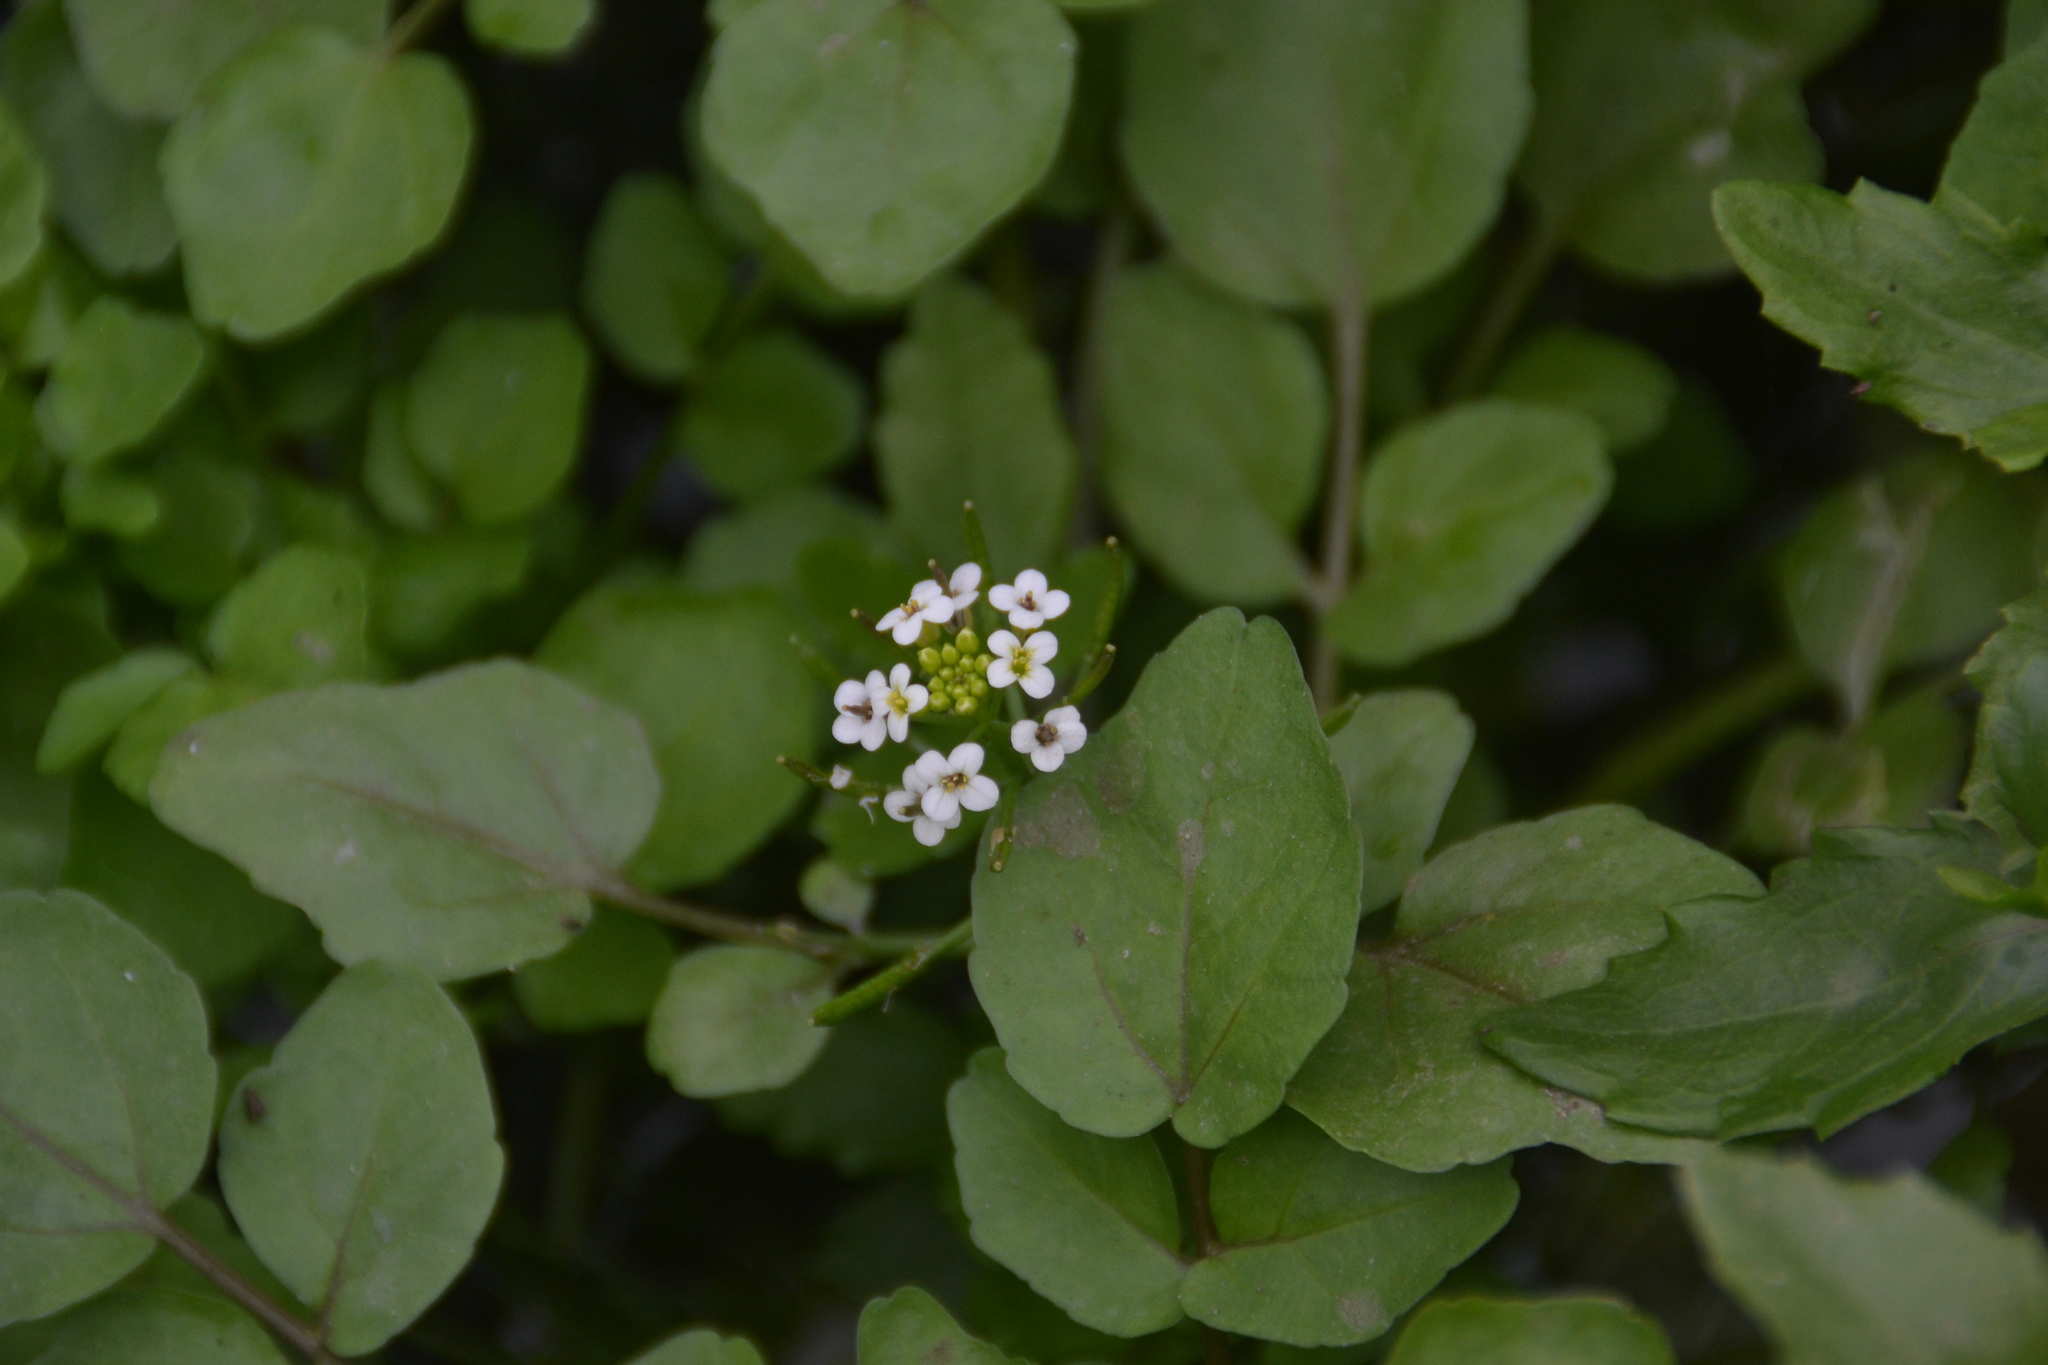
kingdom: Plantae
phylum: Tracheophyta
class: Magnoliopsida
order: Brassicales
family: Brassicaceae
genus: Nasturtium
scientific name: Nasturtium officinale
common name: Watercress
